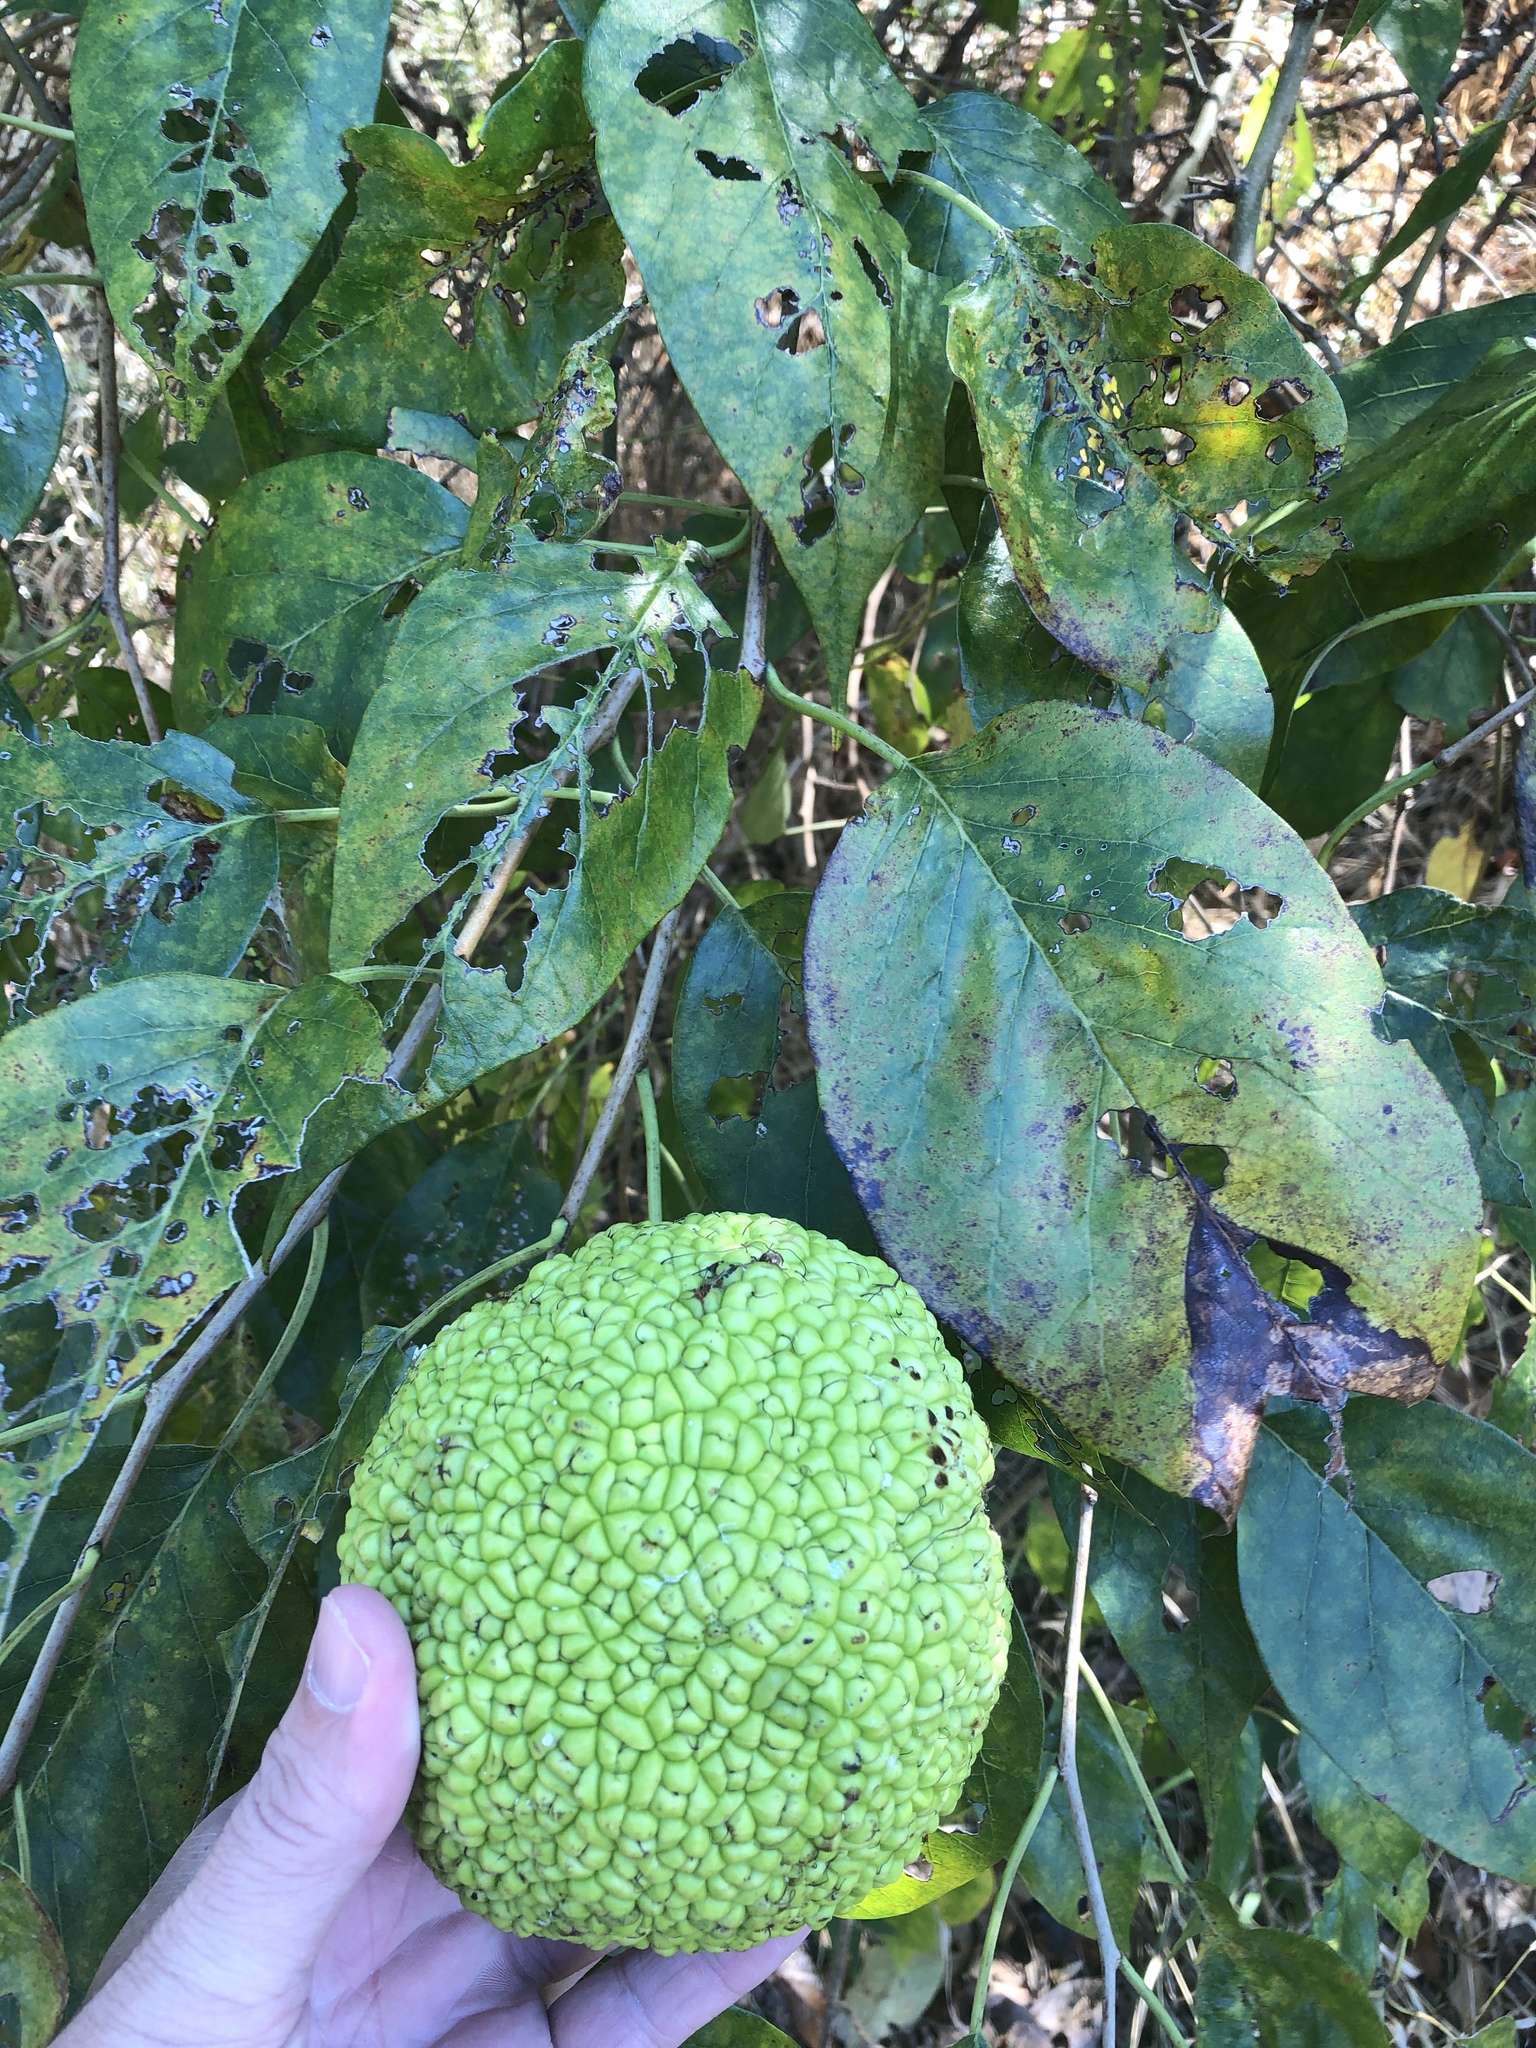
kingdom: Plantae
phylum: Tracheophyta
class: Magnoliopsida
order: Rosales
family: Moraceae
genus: Maclura
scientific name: Maclura pomifera
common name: Osage-orange
